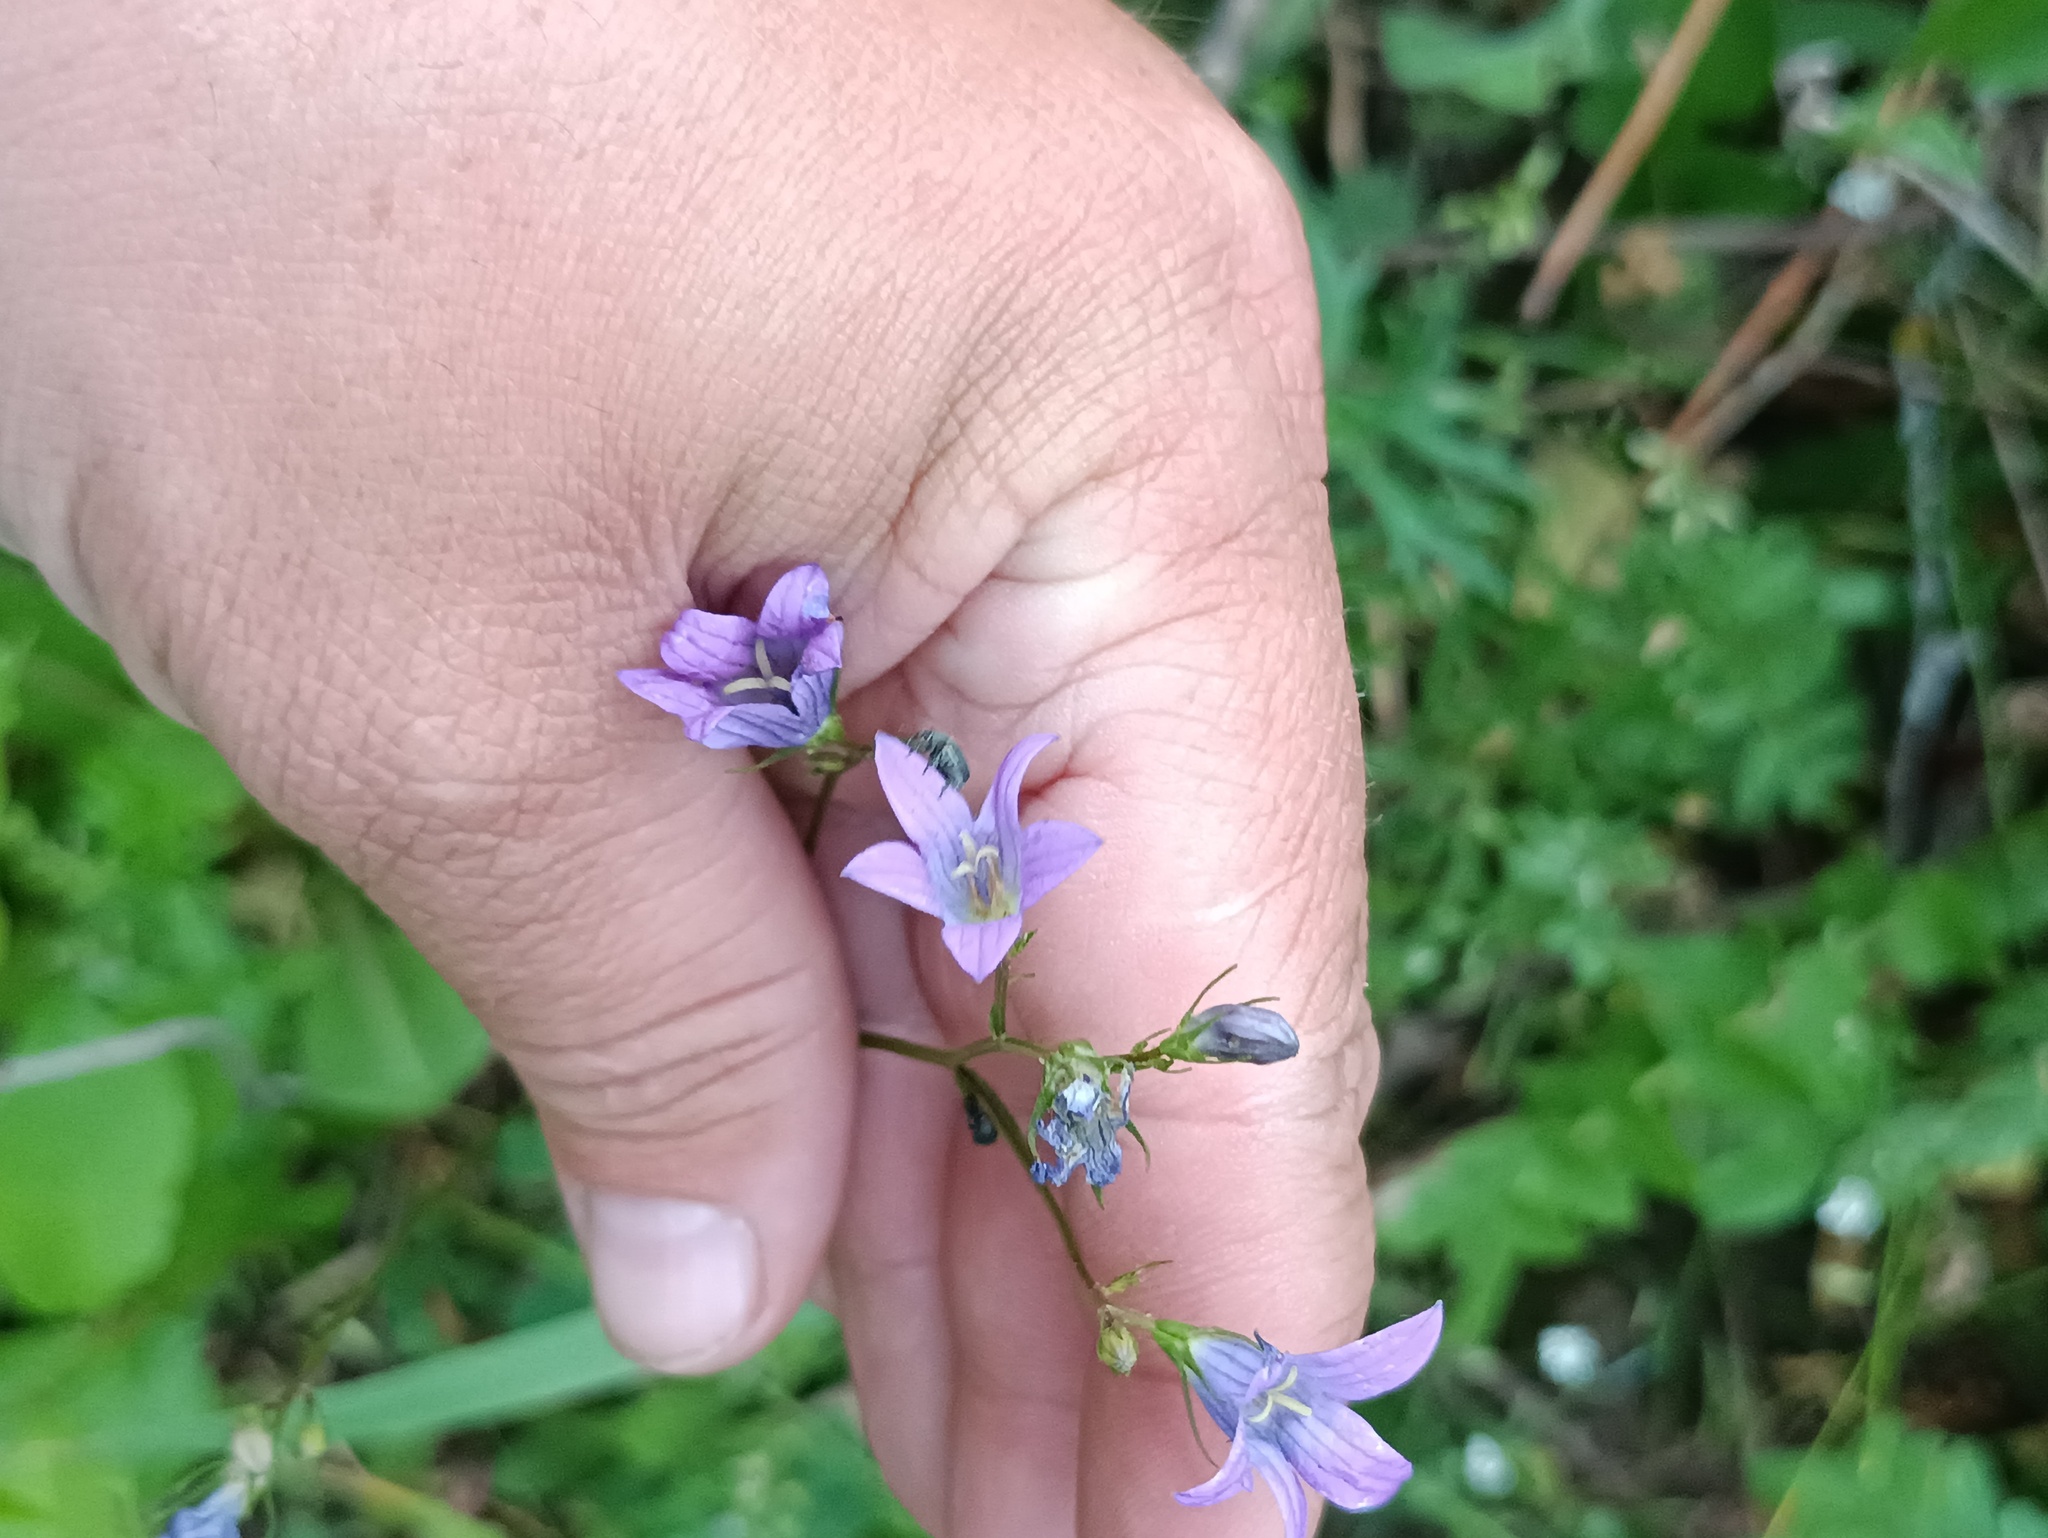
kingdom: Plantae
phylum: Tracheophyta
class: Magnoliopsida
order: Asterales
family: Campanulaceae
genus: Campanula
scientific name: Campanula patula
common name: Spreading bellflower
